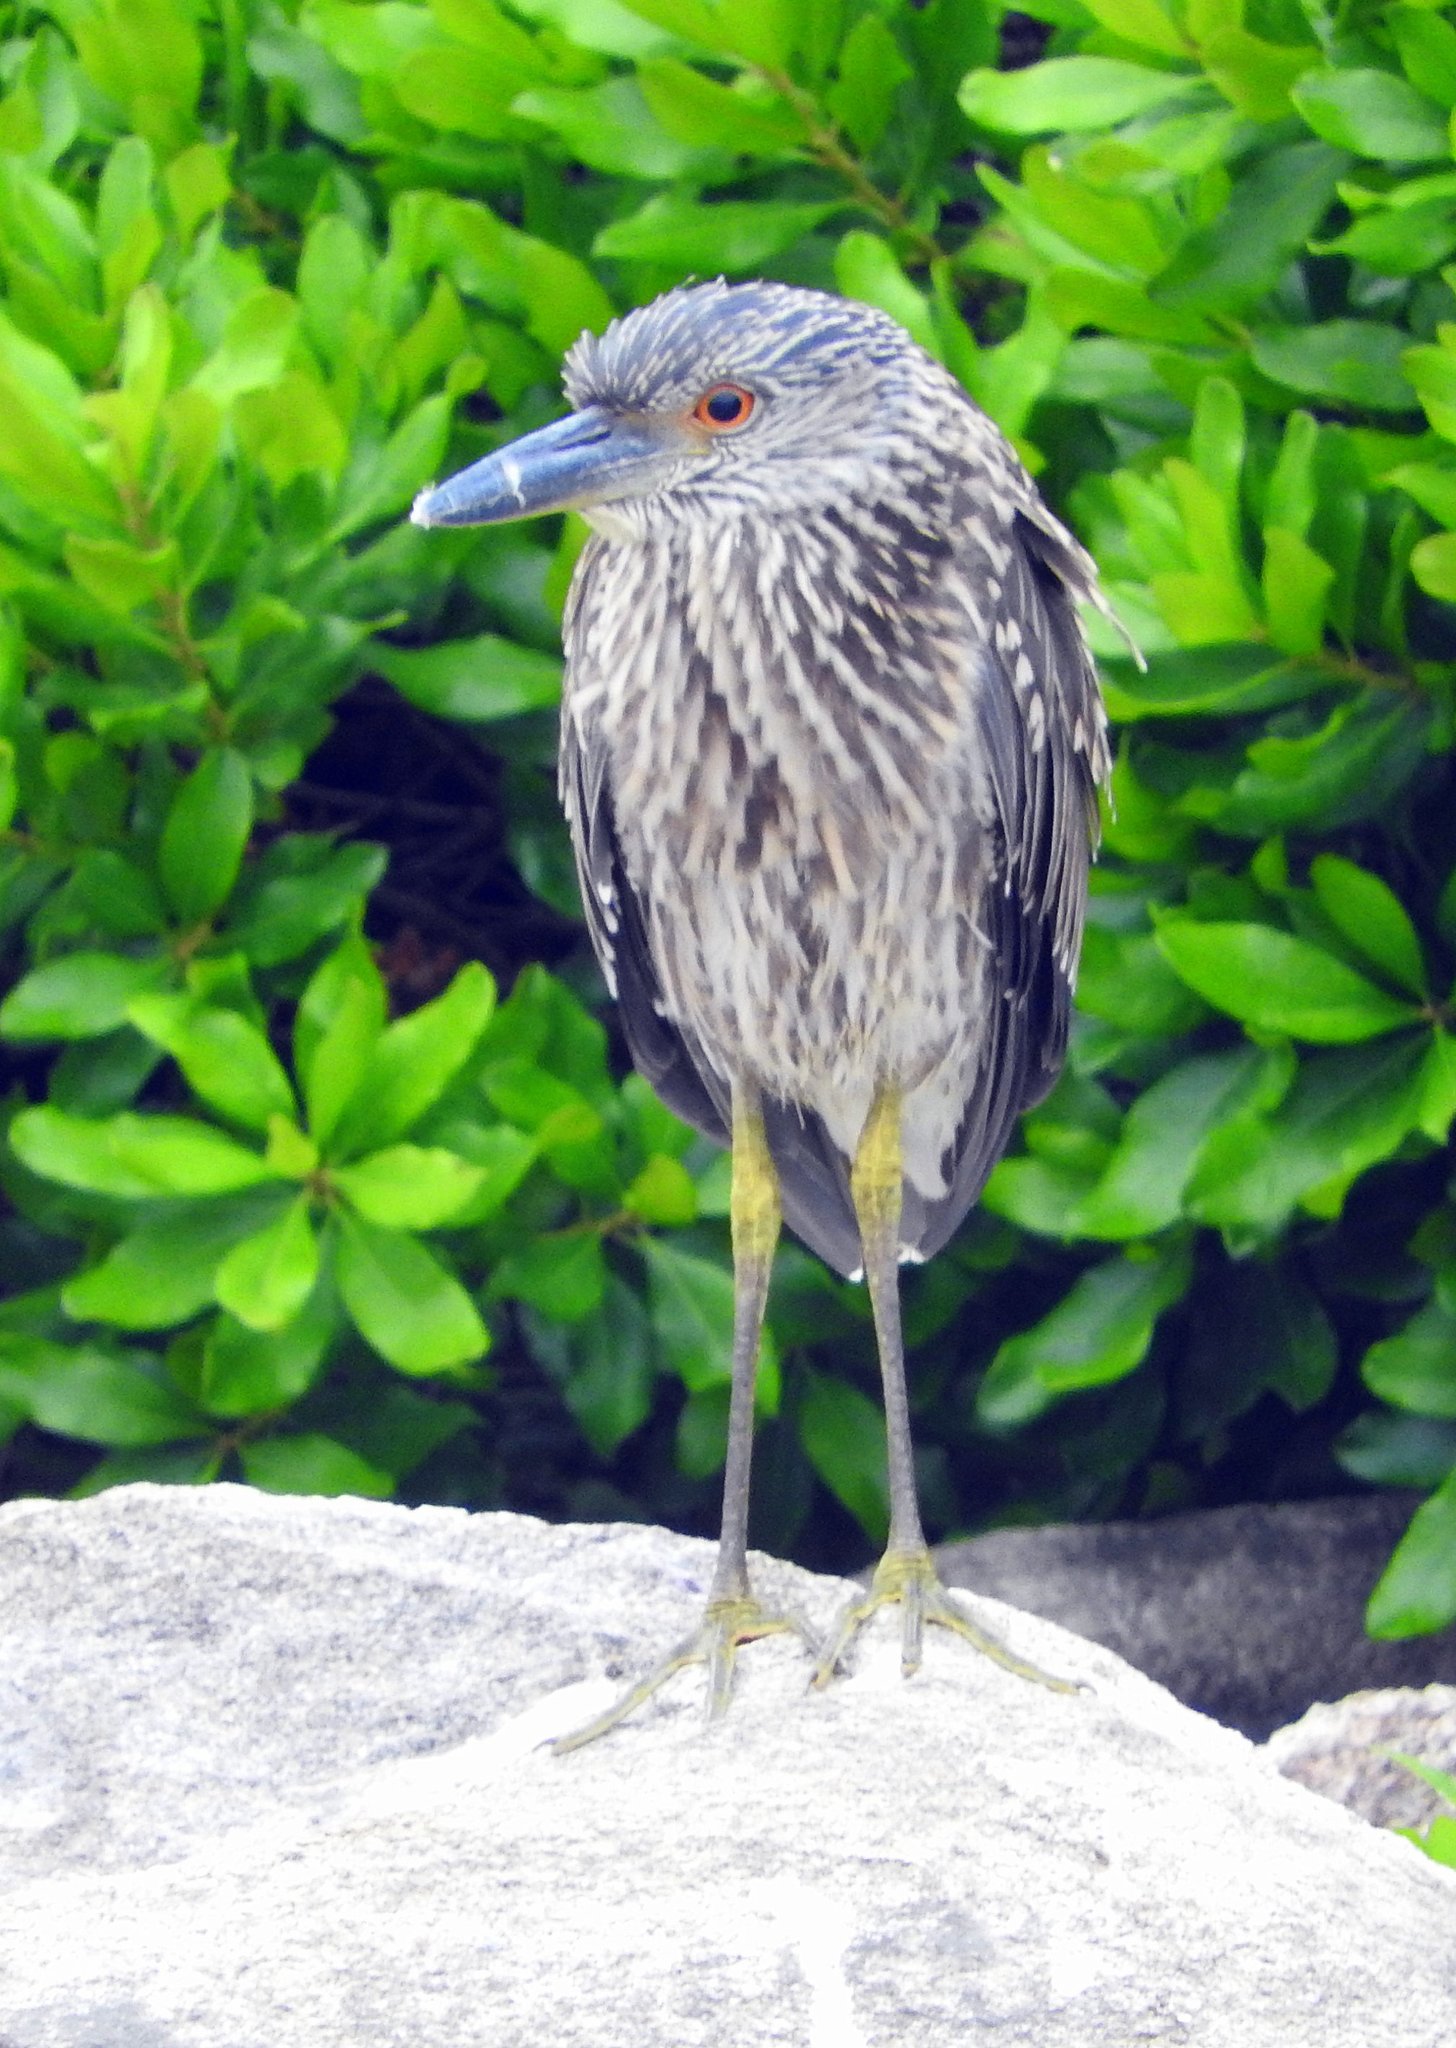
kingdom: Animalia
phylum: Chordata
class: Aves
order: Pelecaniformes
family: Ardeidae
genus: Nyctanassa
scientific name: Nyctanassa violacea
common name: Yellow-crowned night heron
